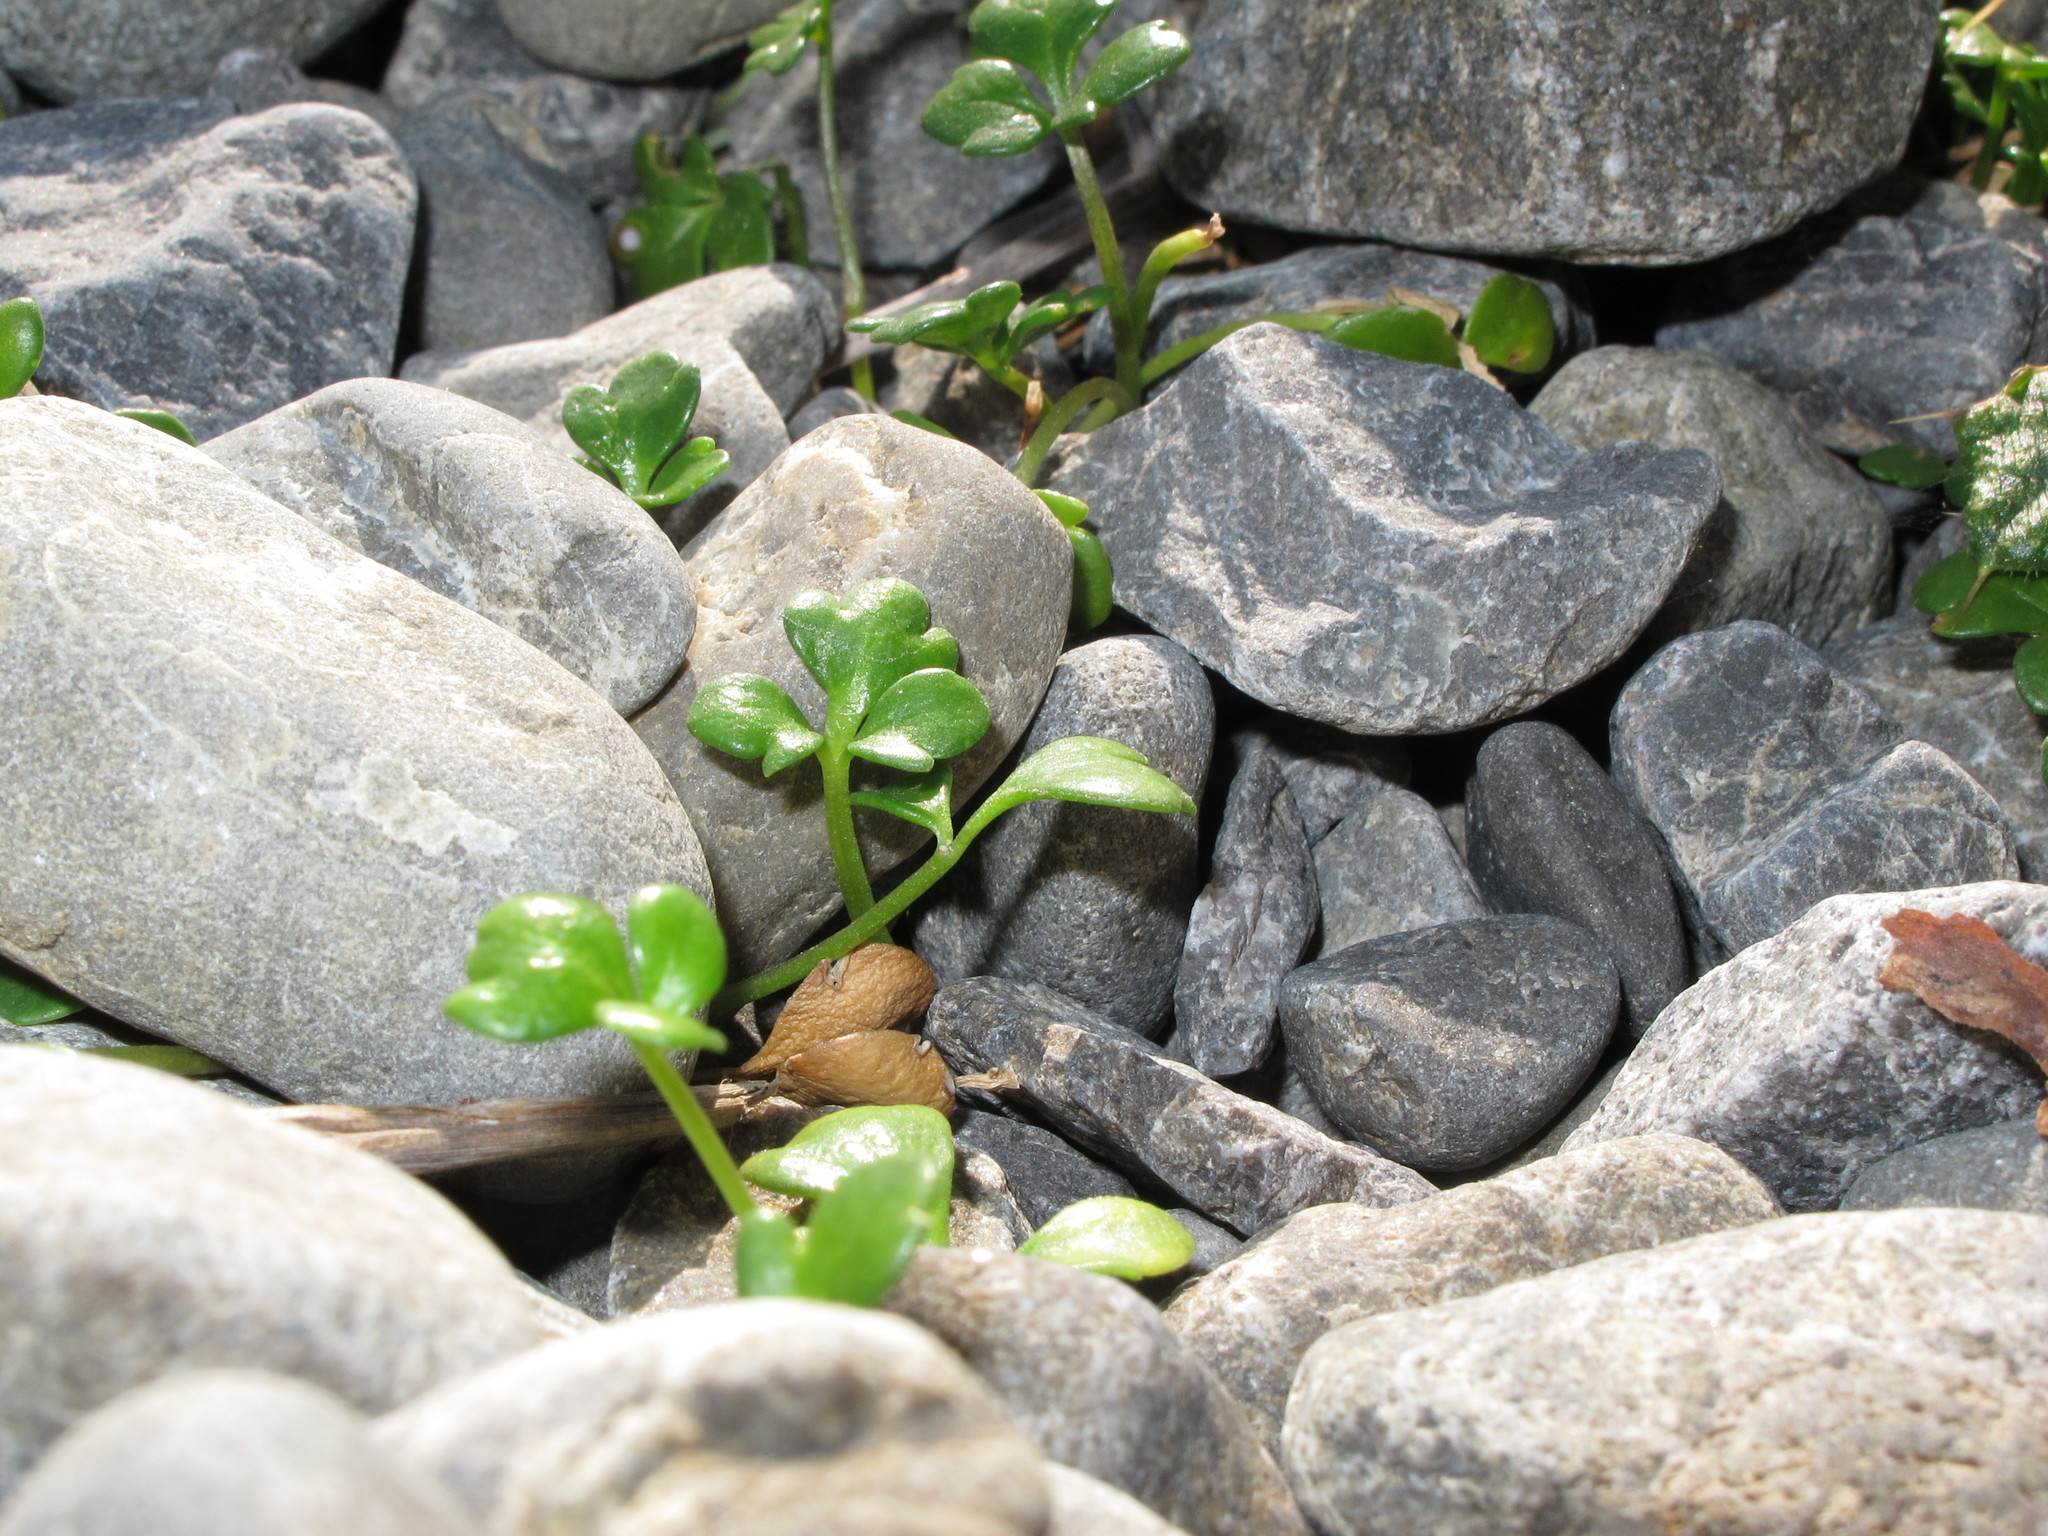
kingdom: Plantae
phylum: Tracheophyta
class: Magnoliopsida
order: Ranunculales
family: Ranunculaceae
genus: Ranunculus
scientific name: Ranunculus acaulis
